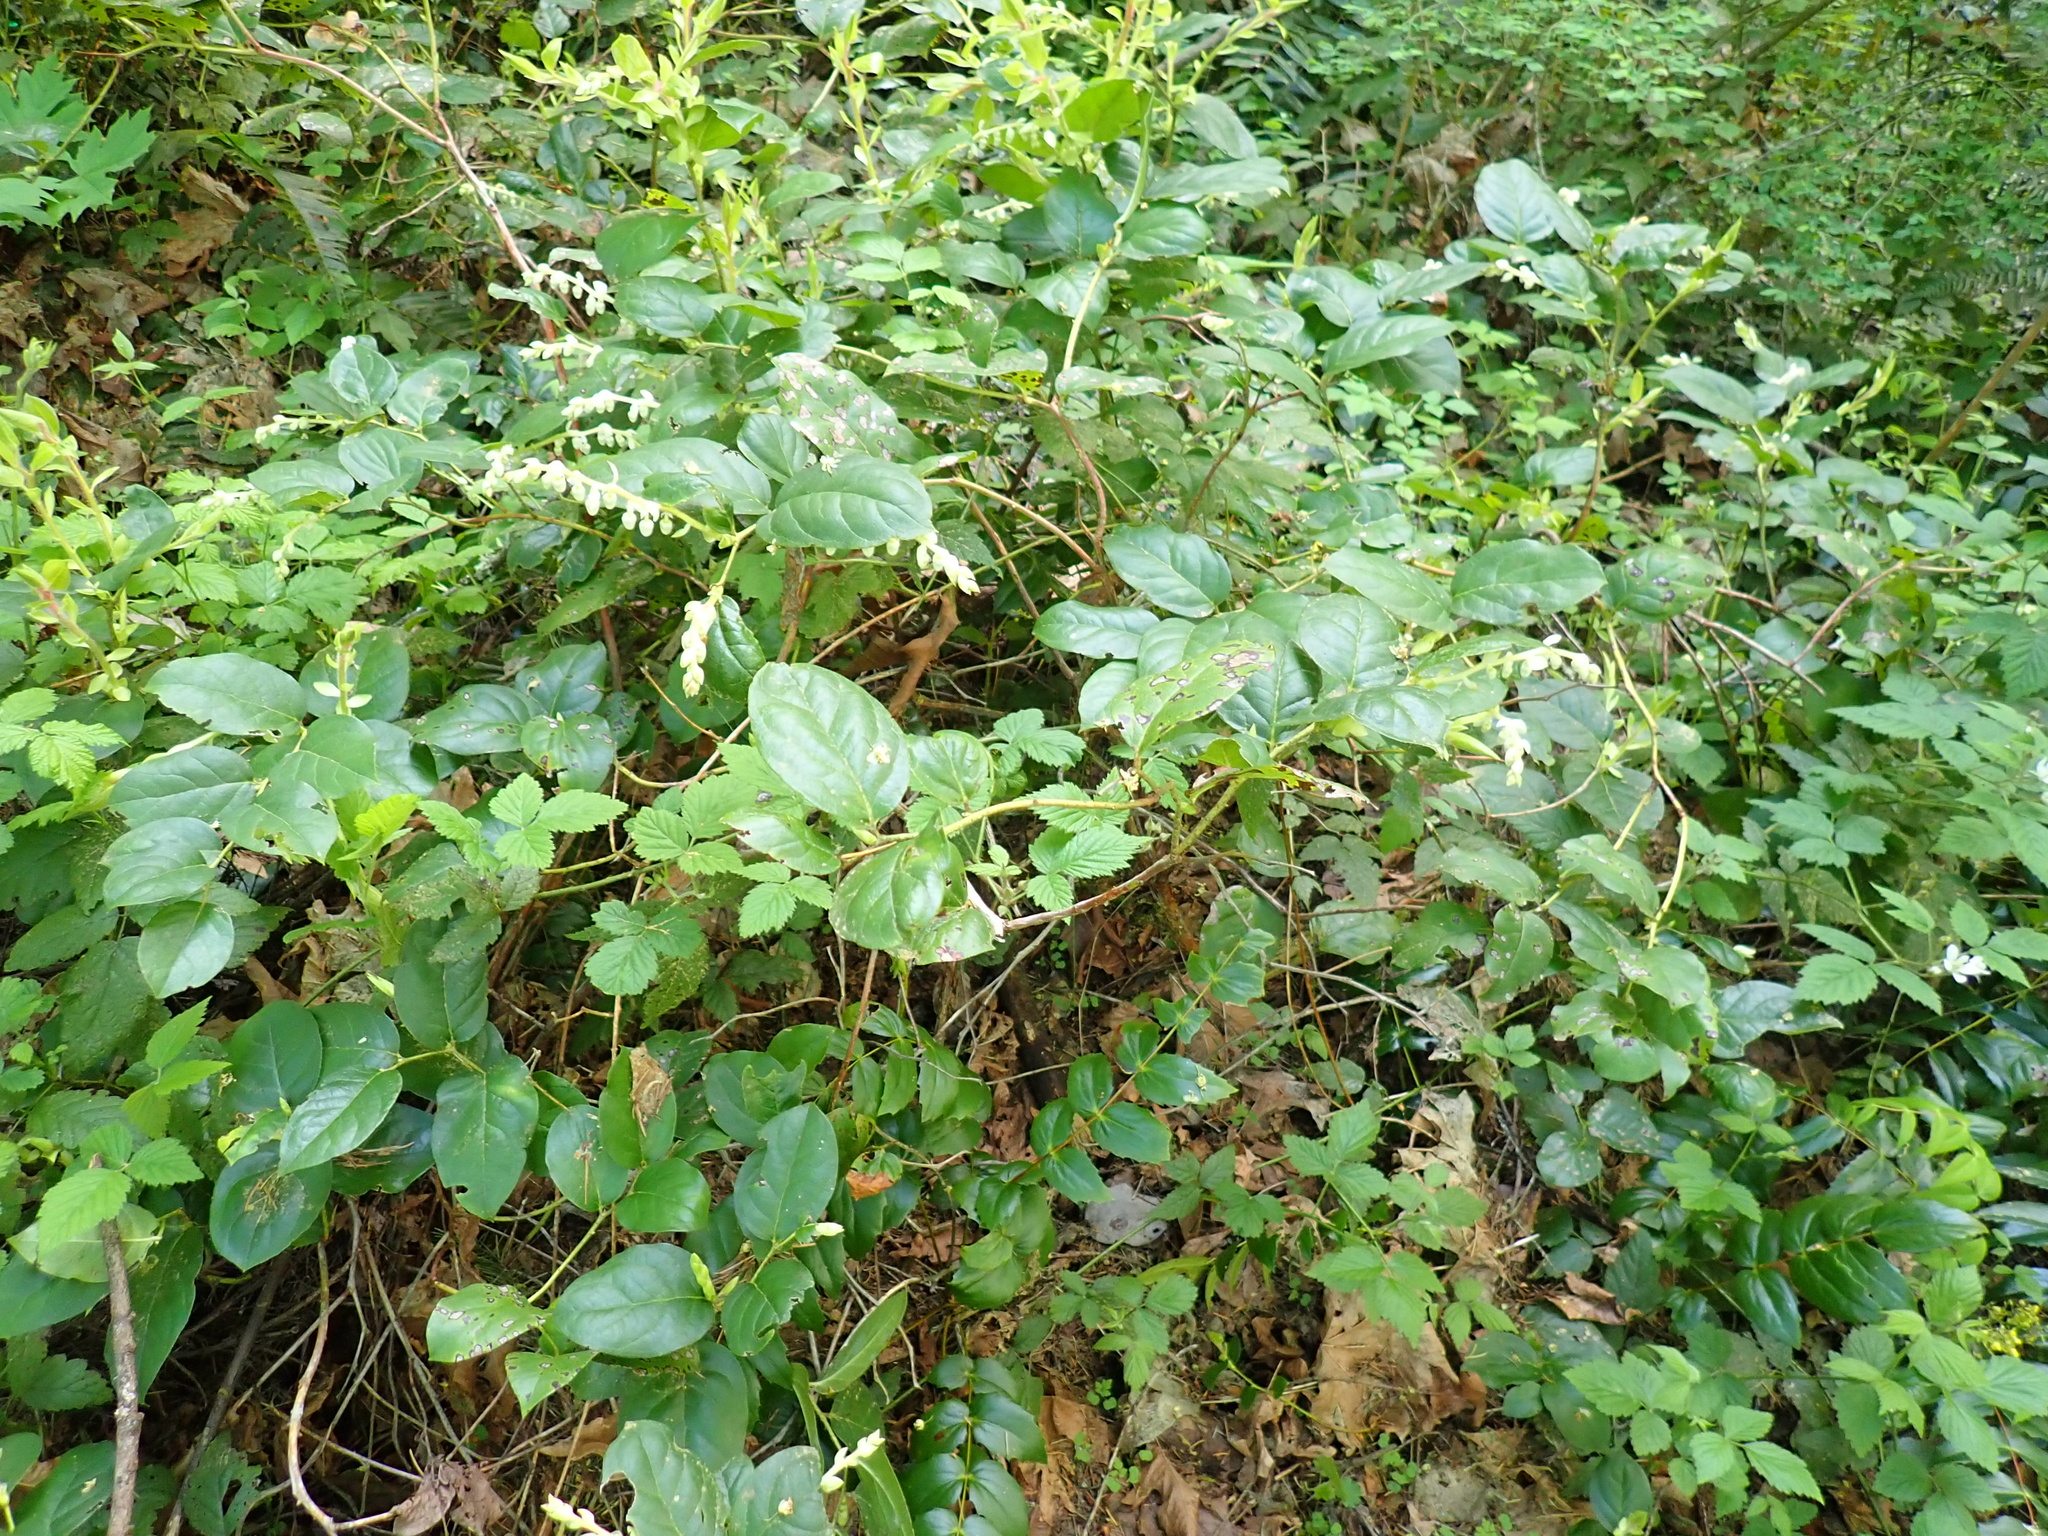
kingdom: Plantae
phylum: Tracheophyta
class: Magnoliopsida
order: Ericales
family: Ericaceae
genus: Gaultheria
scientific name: Gaultheria shallon
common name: Shallon
